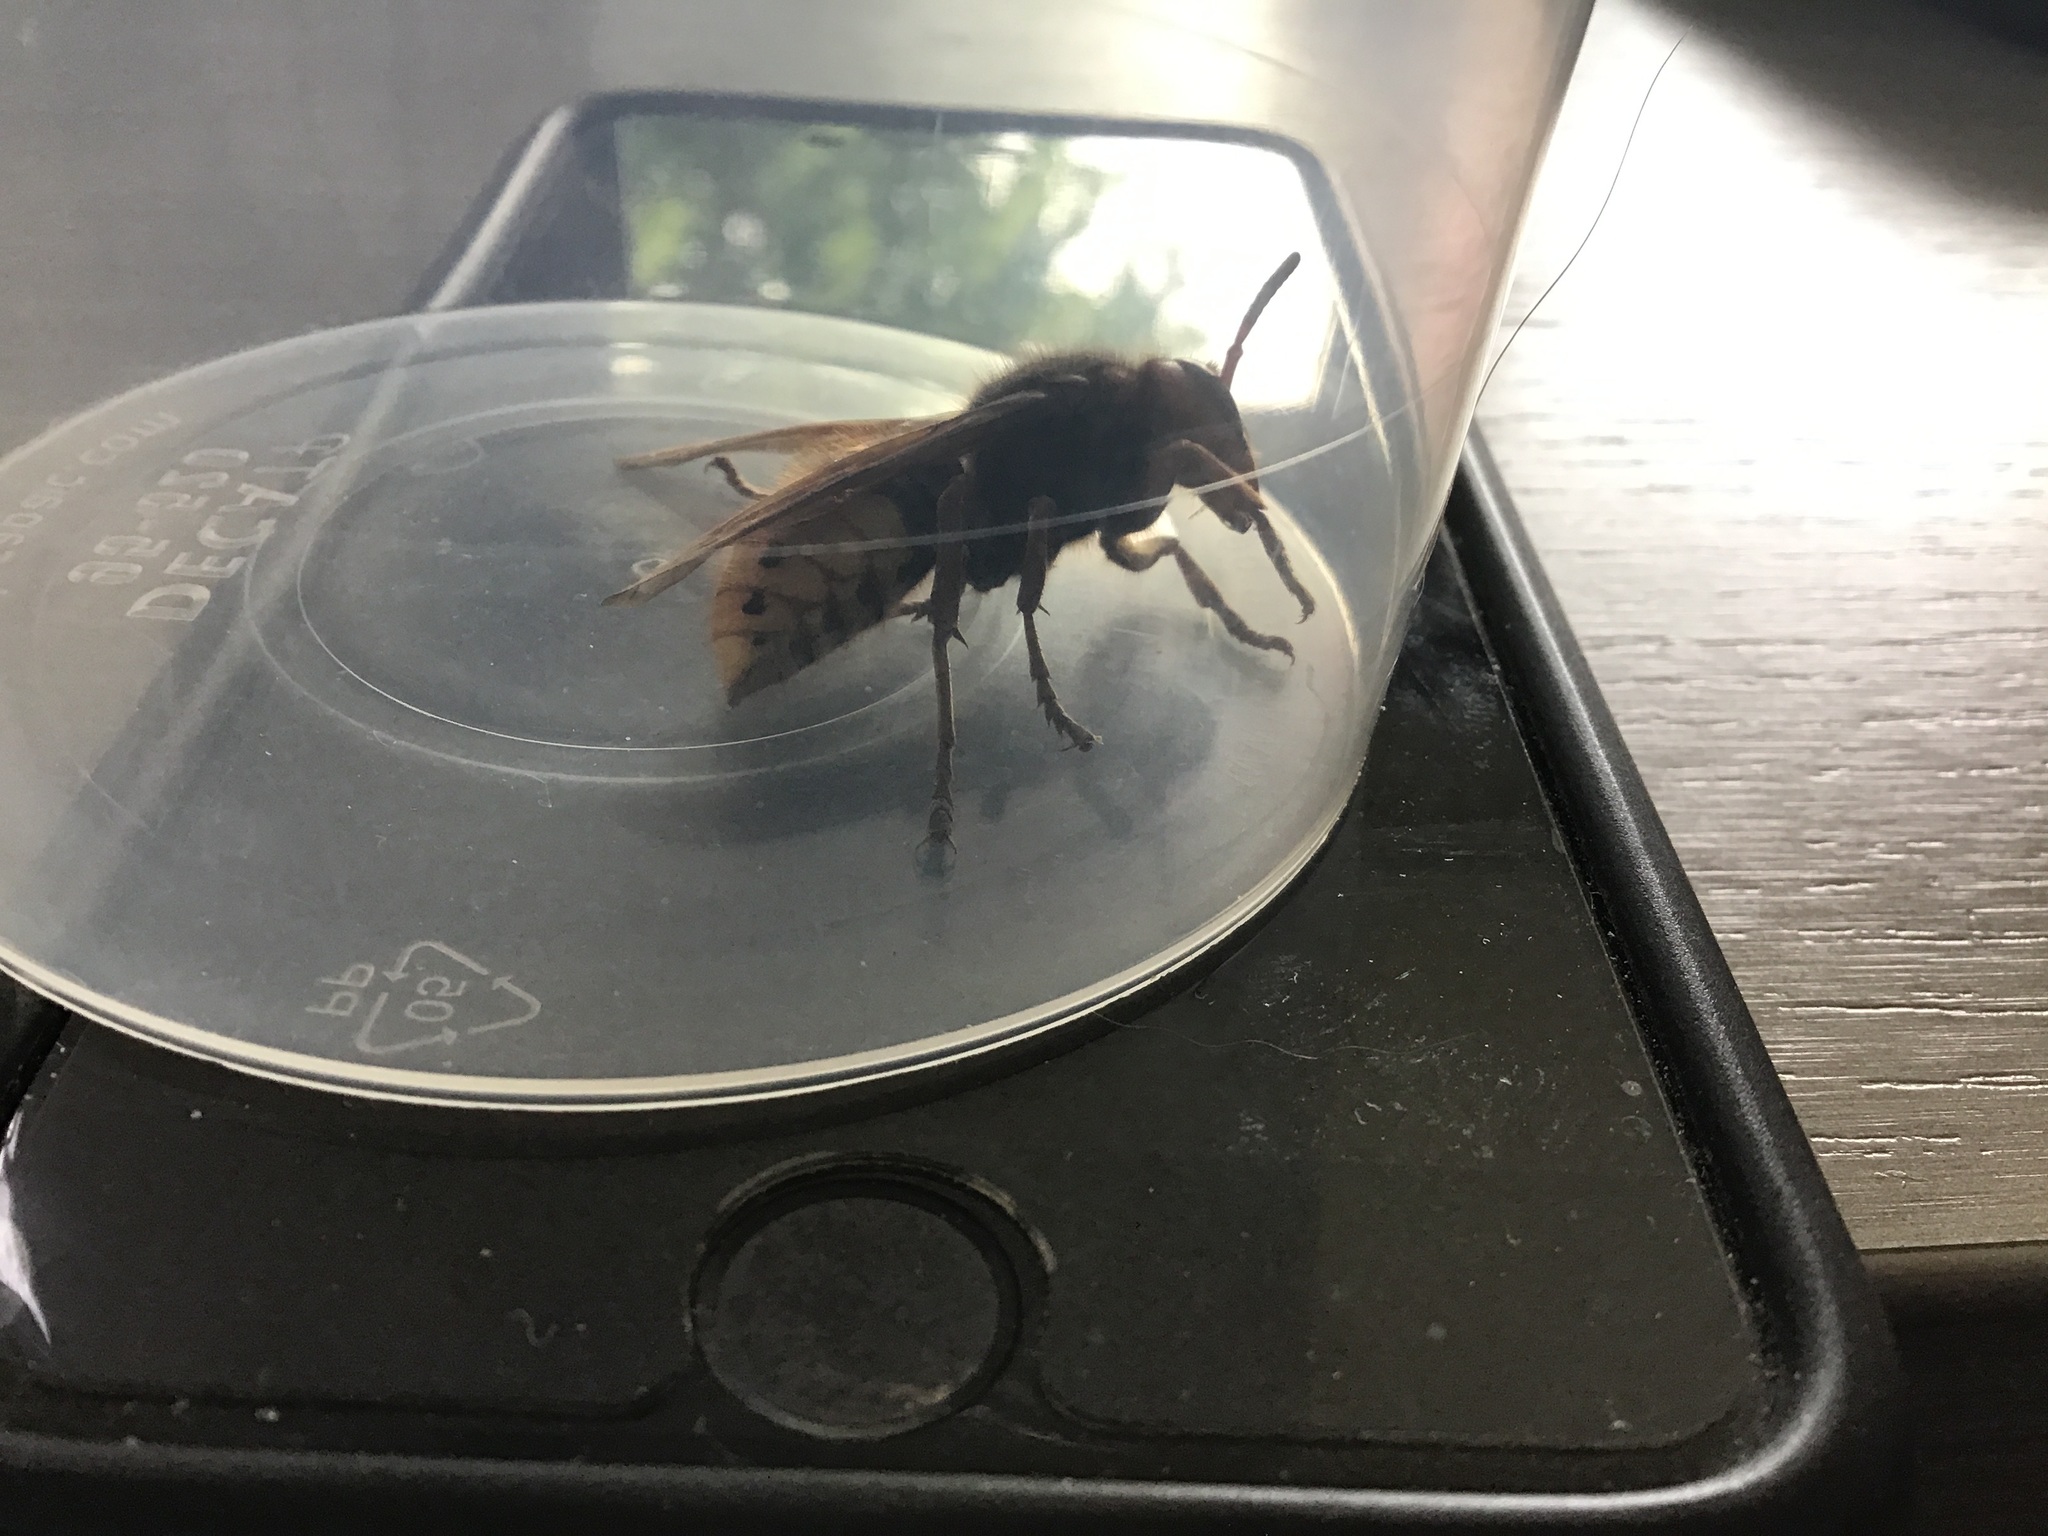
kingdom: Animalia
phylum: Arthropoda
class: Insecta
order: Hymenoptera
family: Vespidae
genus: Vespa
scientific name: Vespa crabro
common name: Hornet
